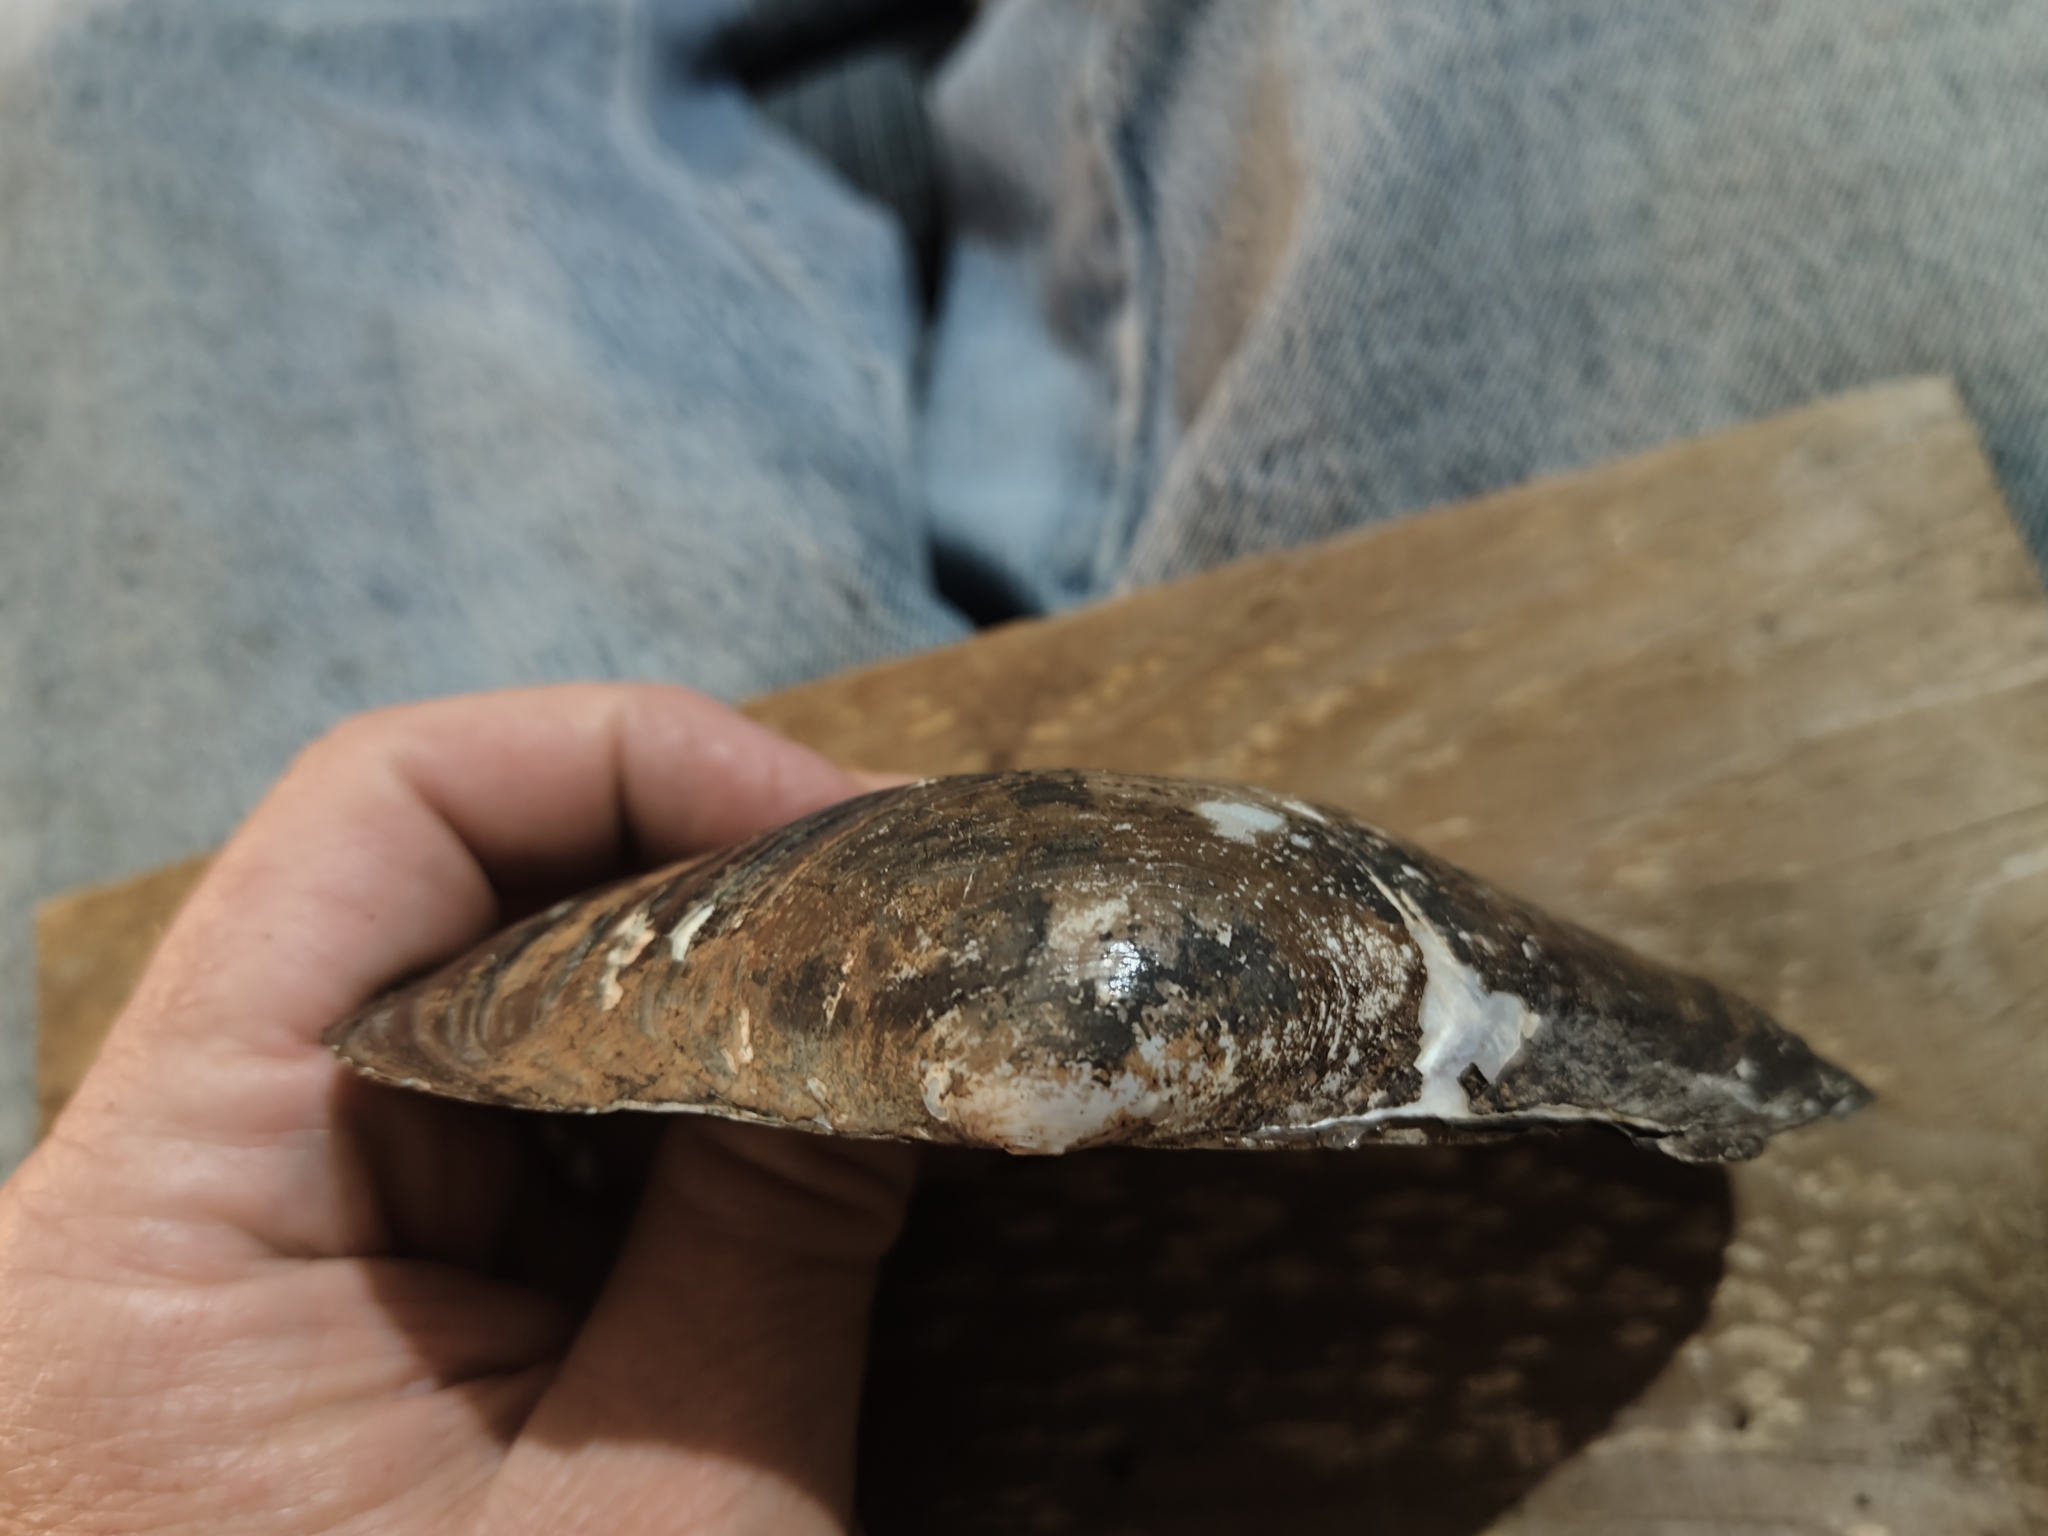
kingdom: Animalia
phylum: Mollusca
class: Bivalvia
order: Unionida
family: Unionidae
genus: Pyganodon
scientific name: Pyganodon grandis
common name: Giant floater
